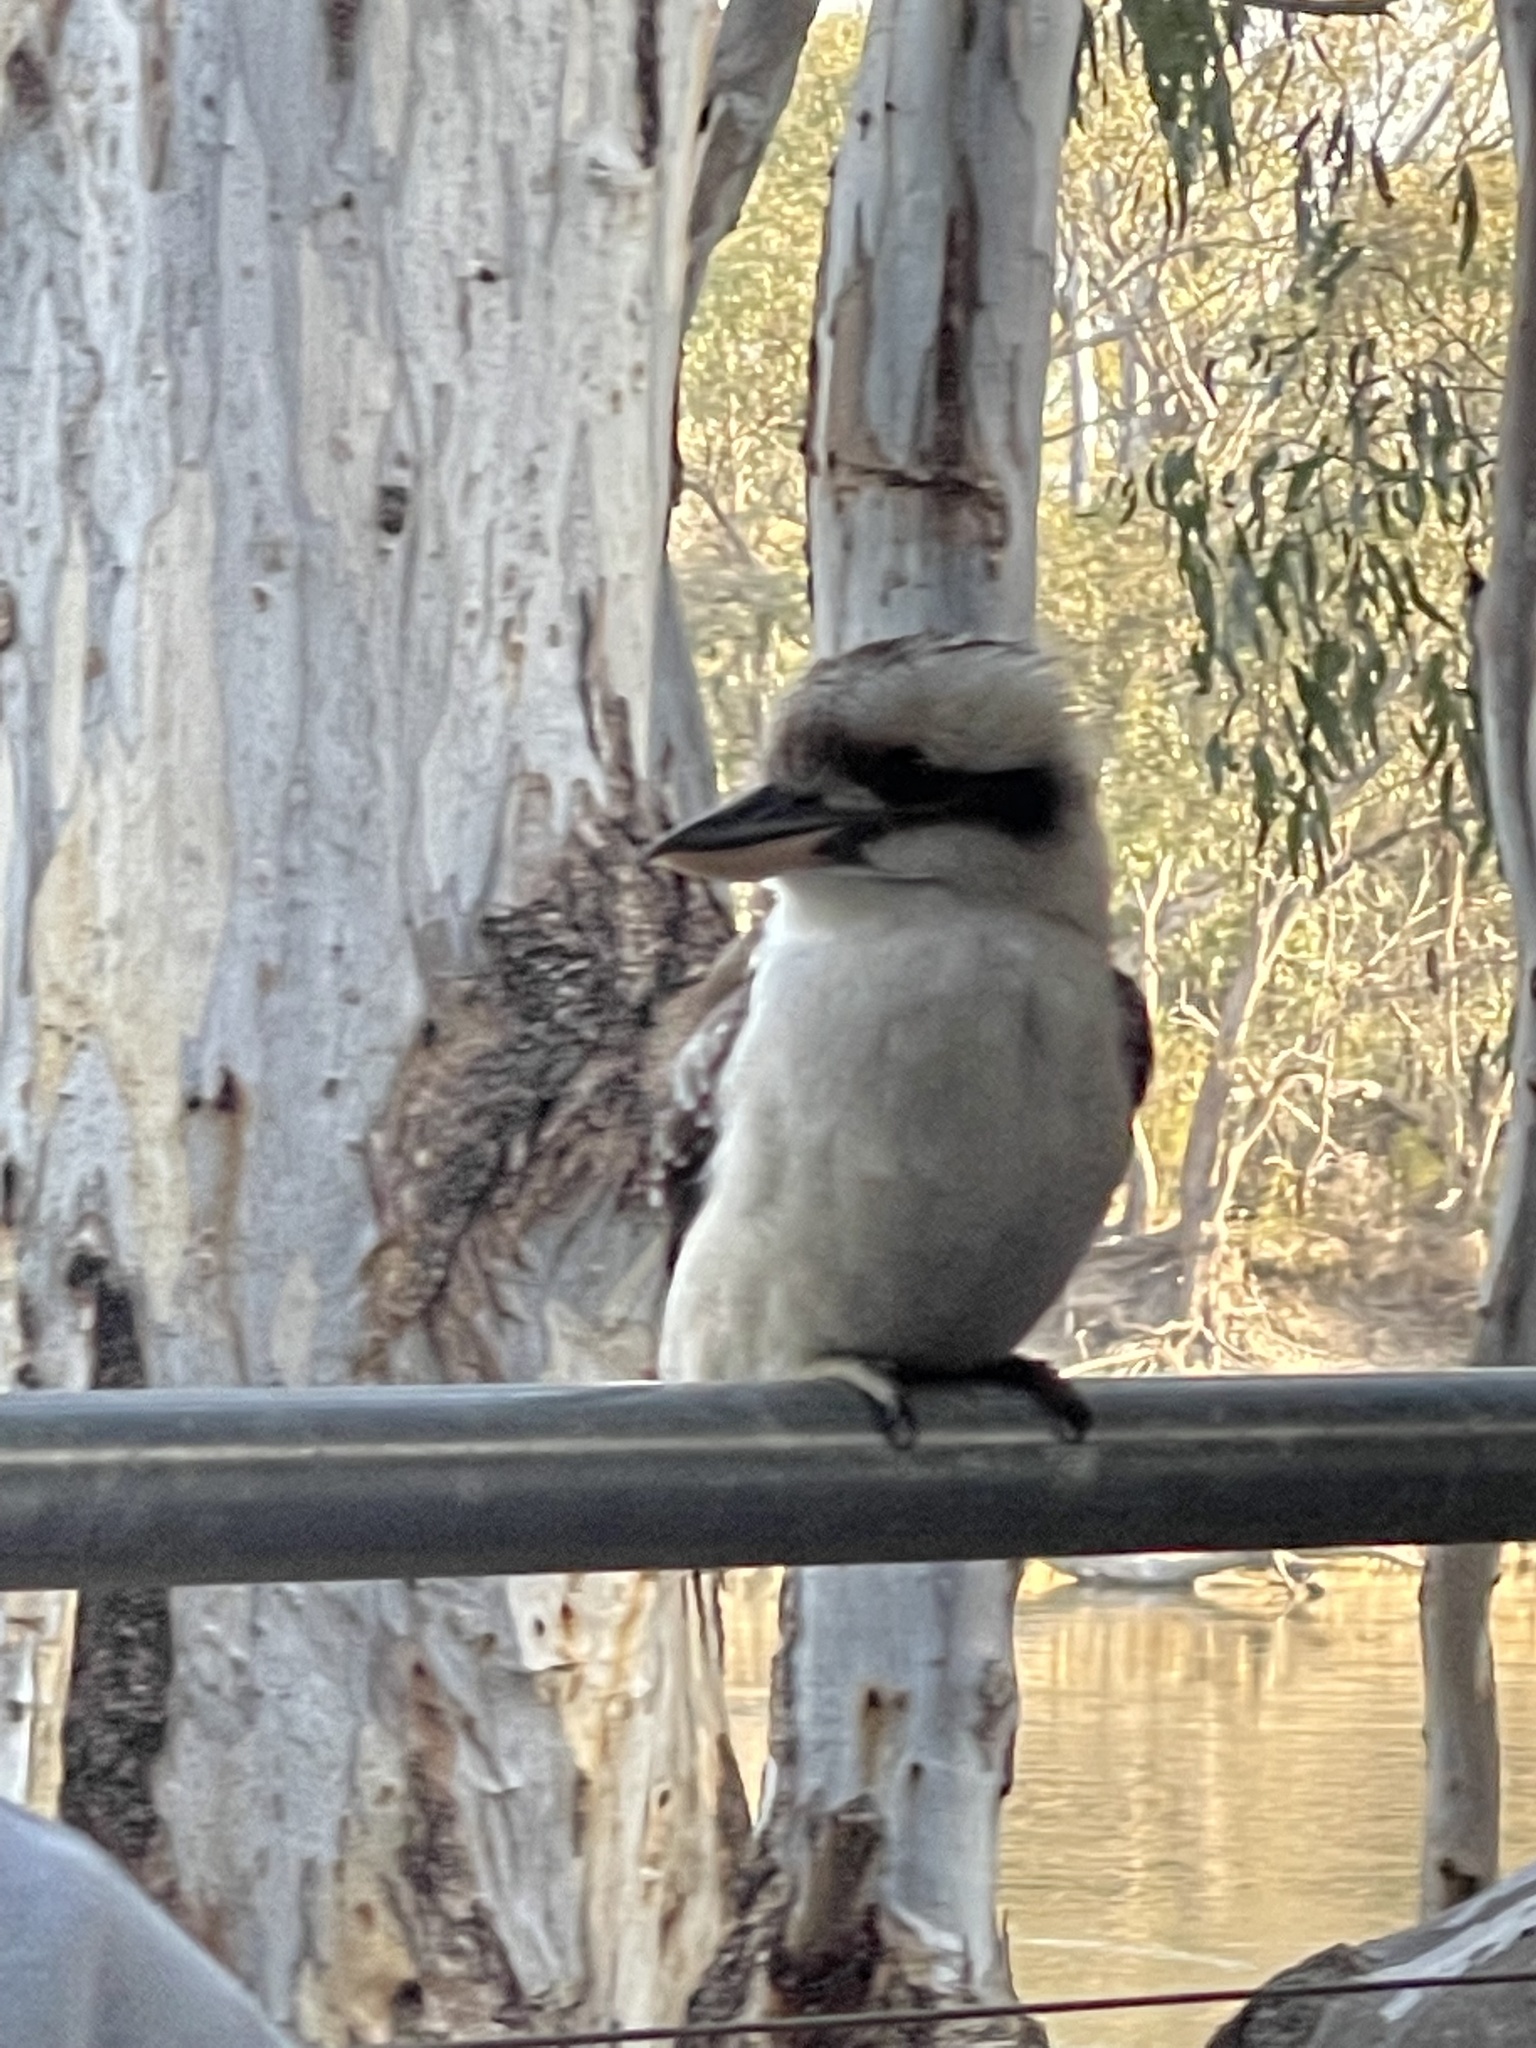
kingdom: Animalia
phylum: Chordata
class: Aves
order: Coraciiformes
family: Alcedinidae
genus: Dacelo
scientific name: Dacelo novaeguineae
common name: Laughing kookaburra
